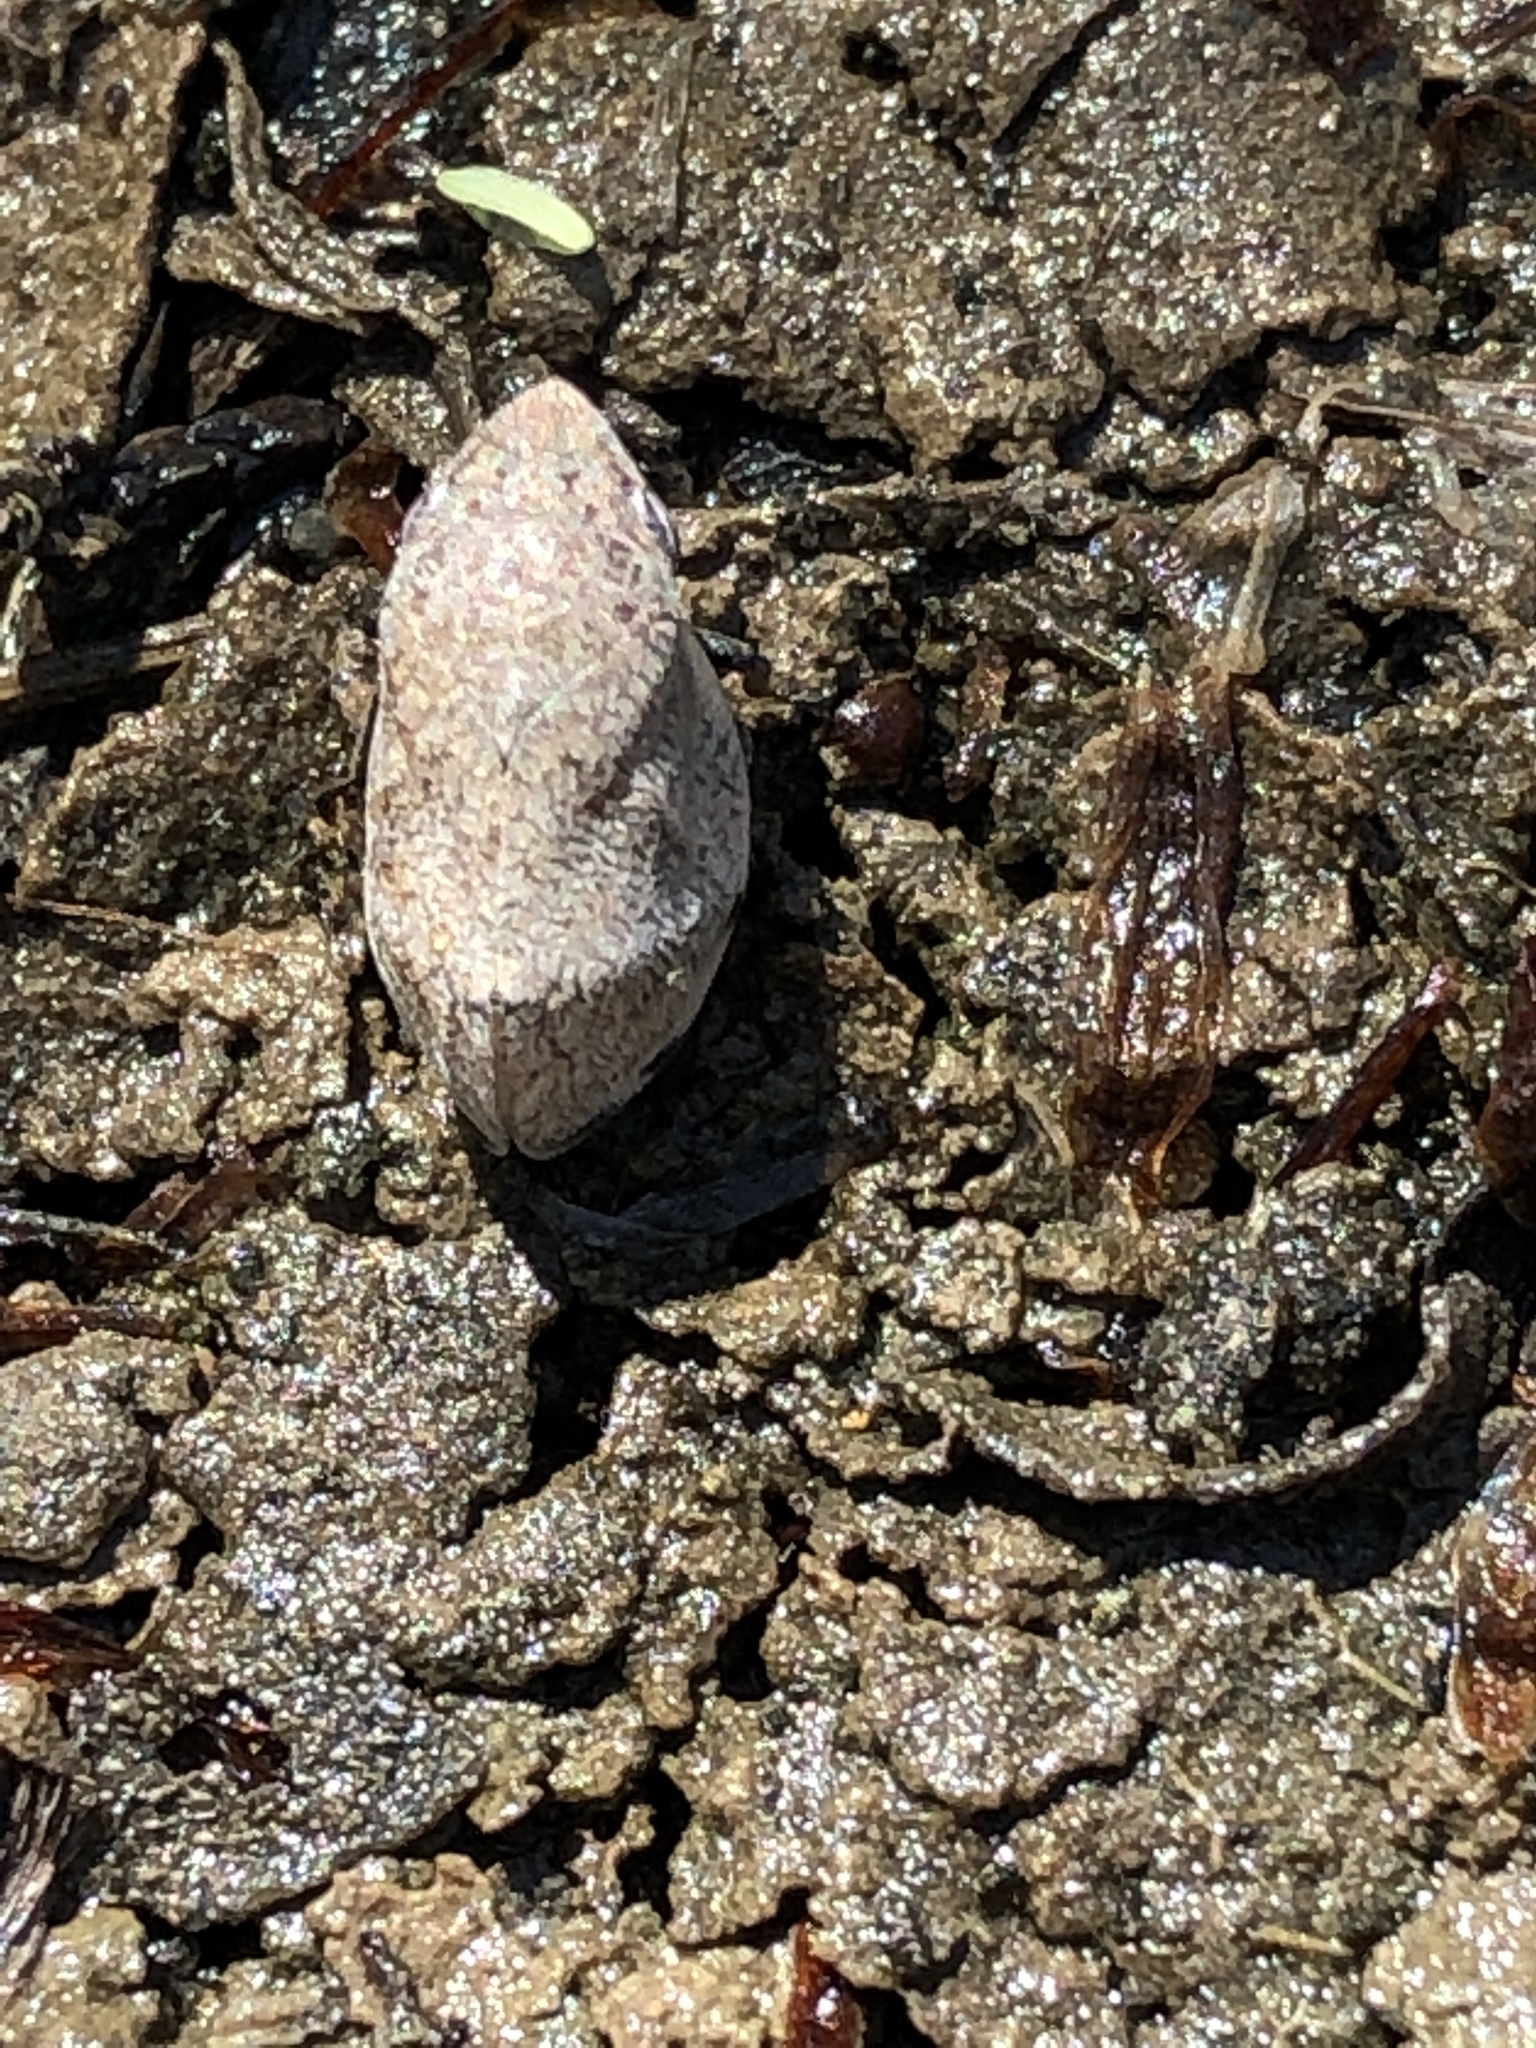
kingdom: Animalia
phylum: Arthropoda
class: Insecta
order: Hemiptera
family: Aphrophoridae
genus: Lepyronia
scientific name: Lepyronia gibbosa
